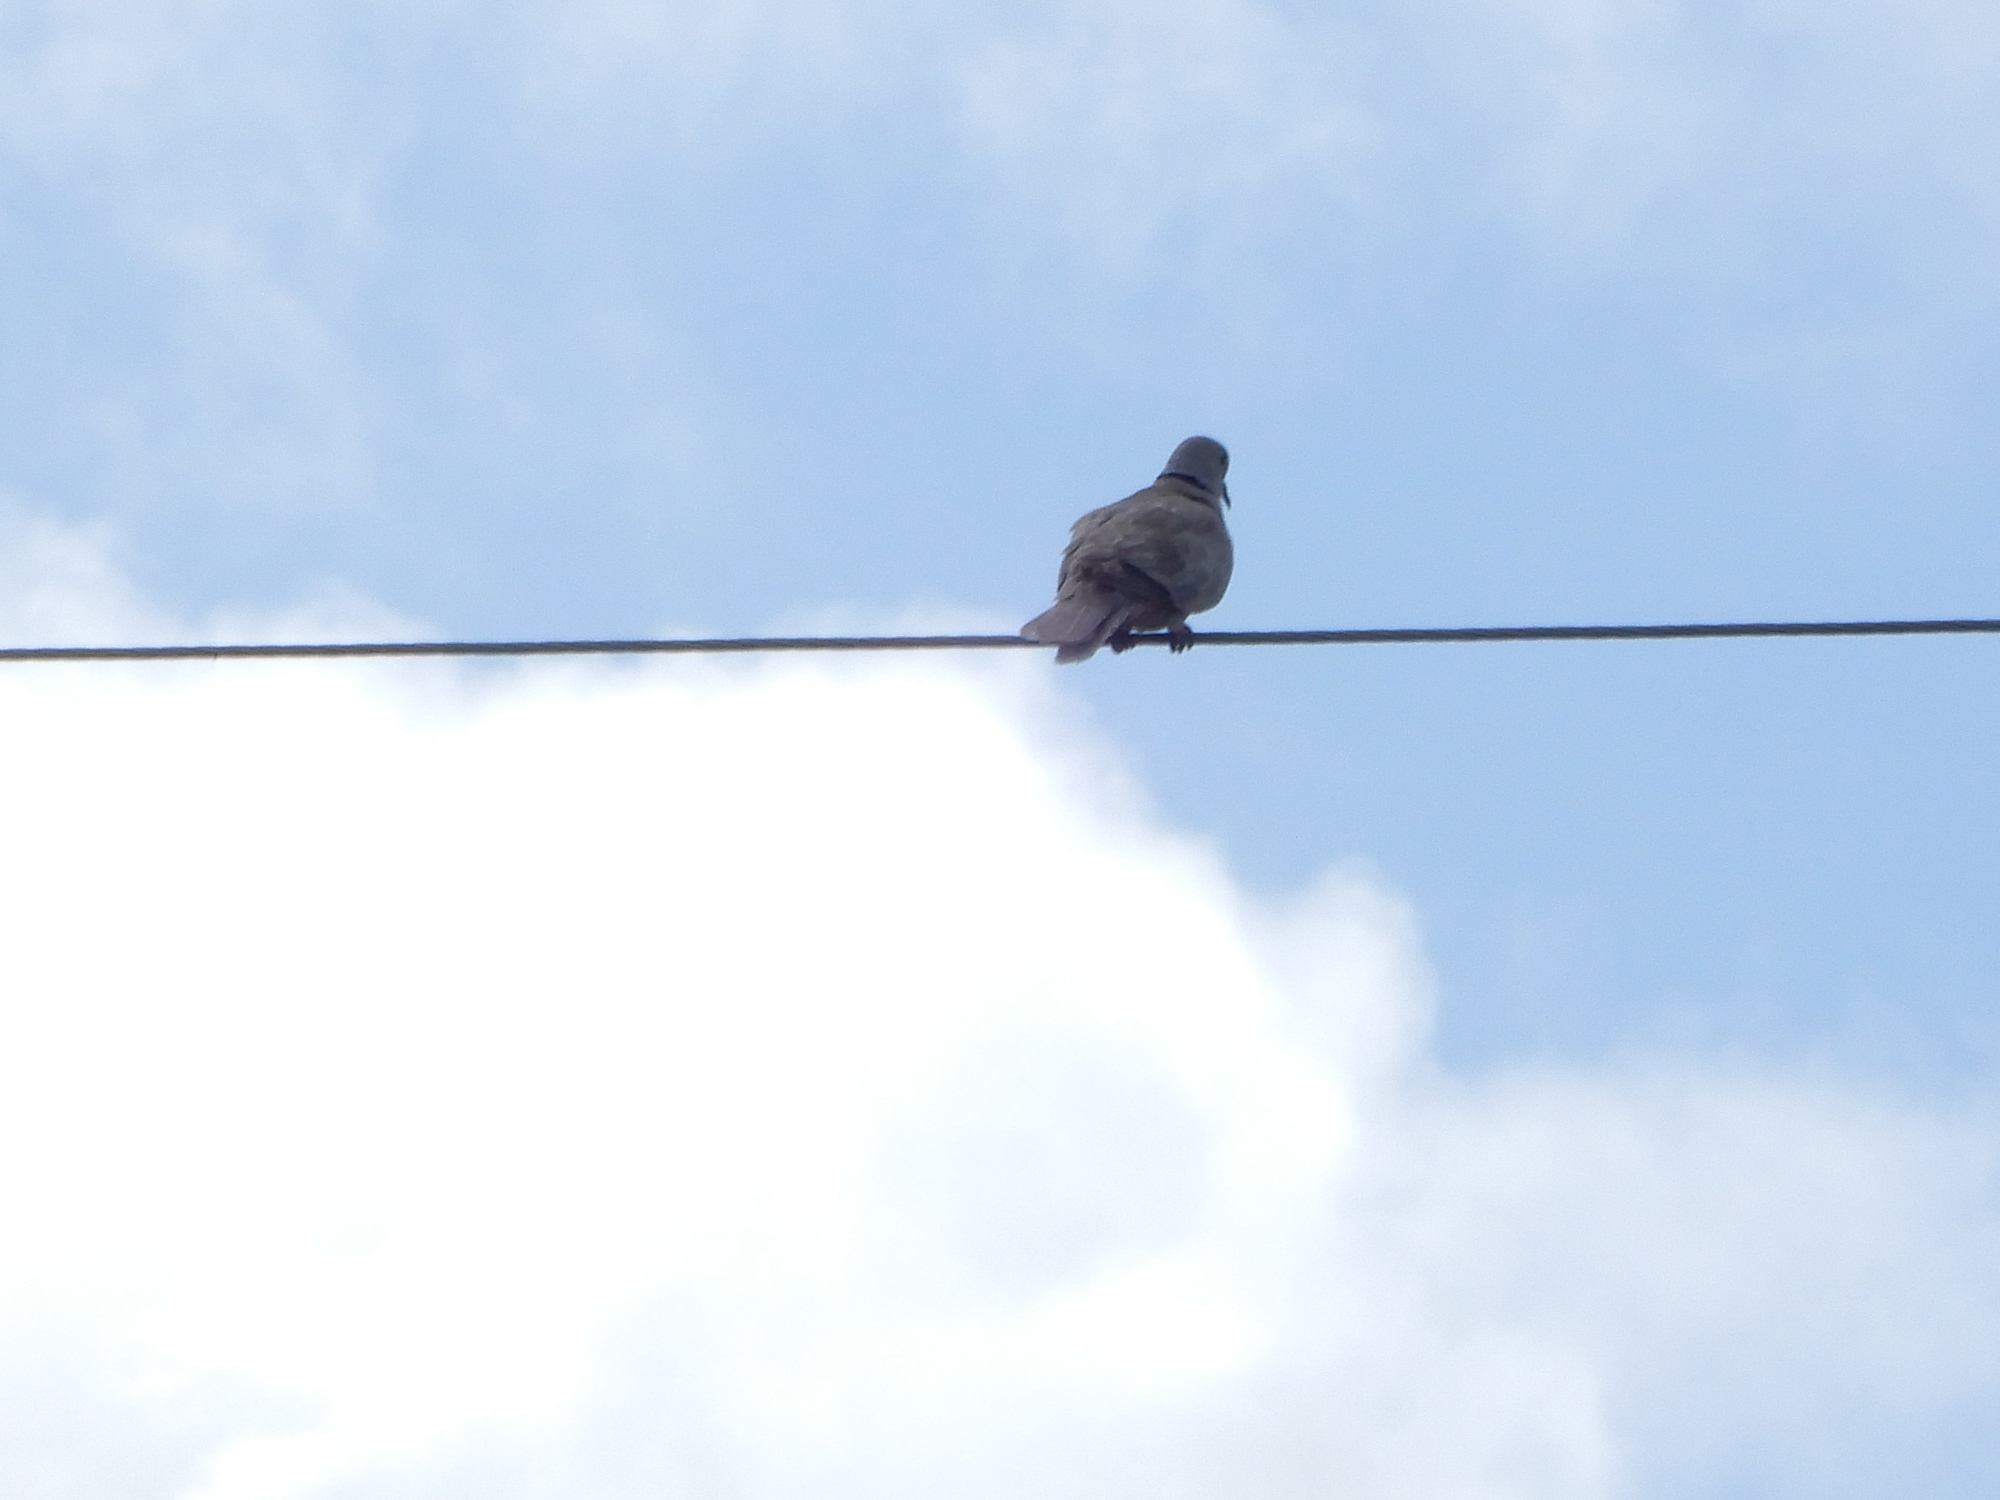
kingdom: Animalia
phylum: Chordata
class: Aves
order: Columbiformes
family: Columbidae
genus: Streptopelia
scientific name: Streptopelia decaocto
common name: Eurasian collared dove
